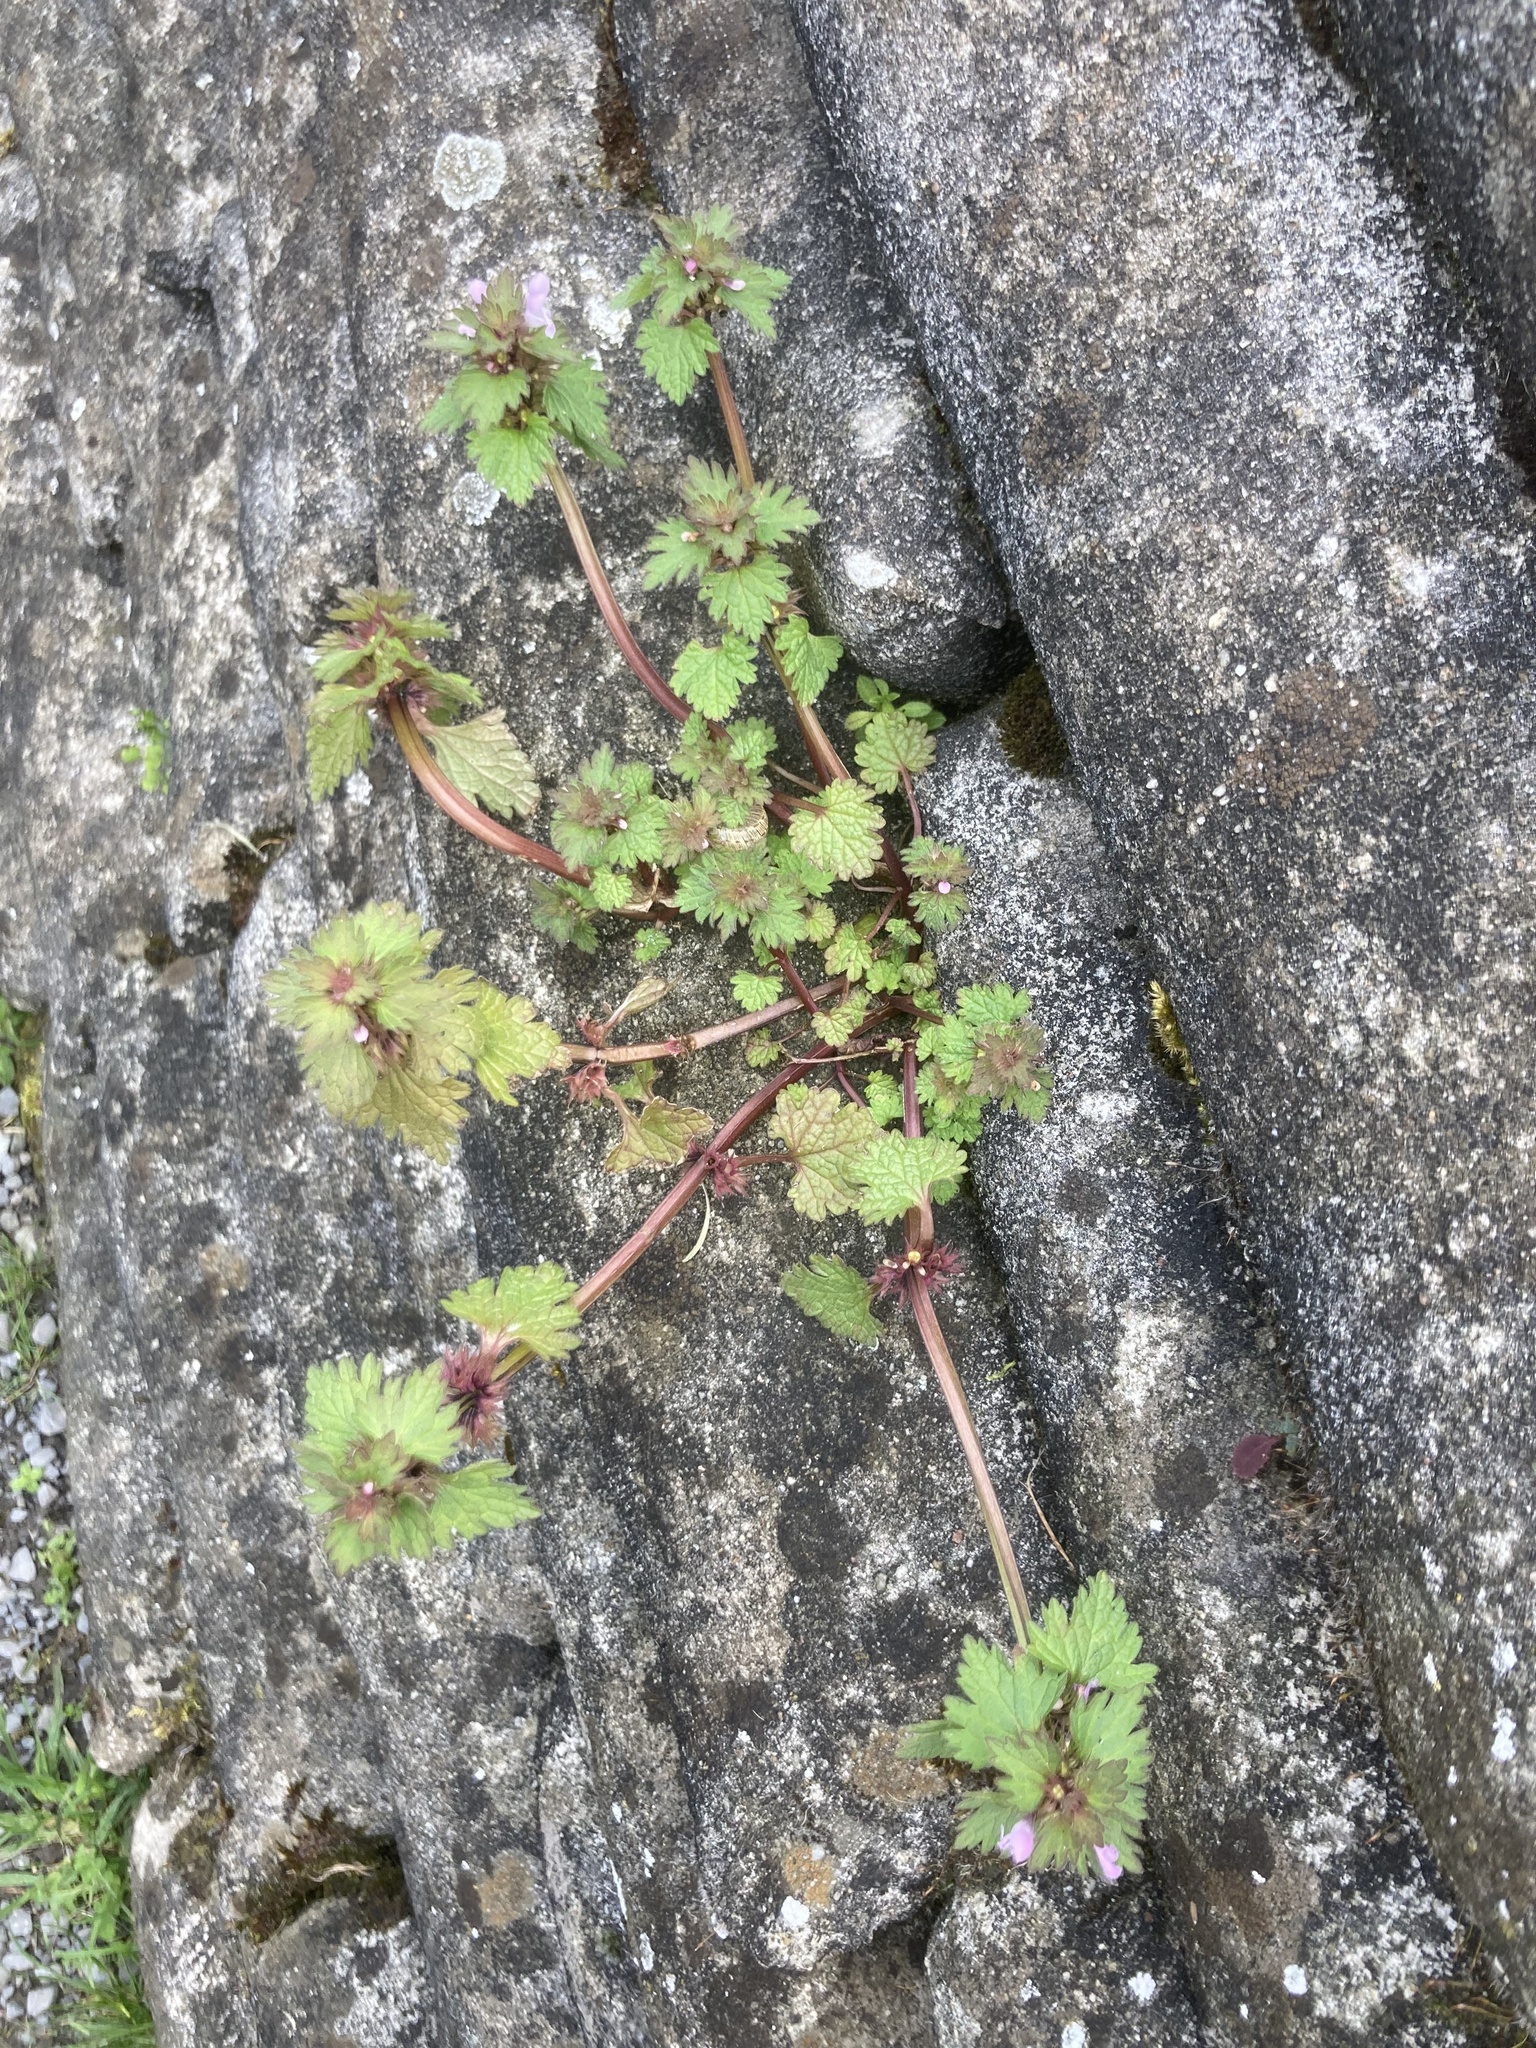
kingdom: Plantae
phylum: Tracheophyta
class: Magnoliopsida
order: Lamiales
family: Lamiaceae
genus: Lamium
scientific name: Lamium hybridum
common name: Cut-leaved dead-nettle
